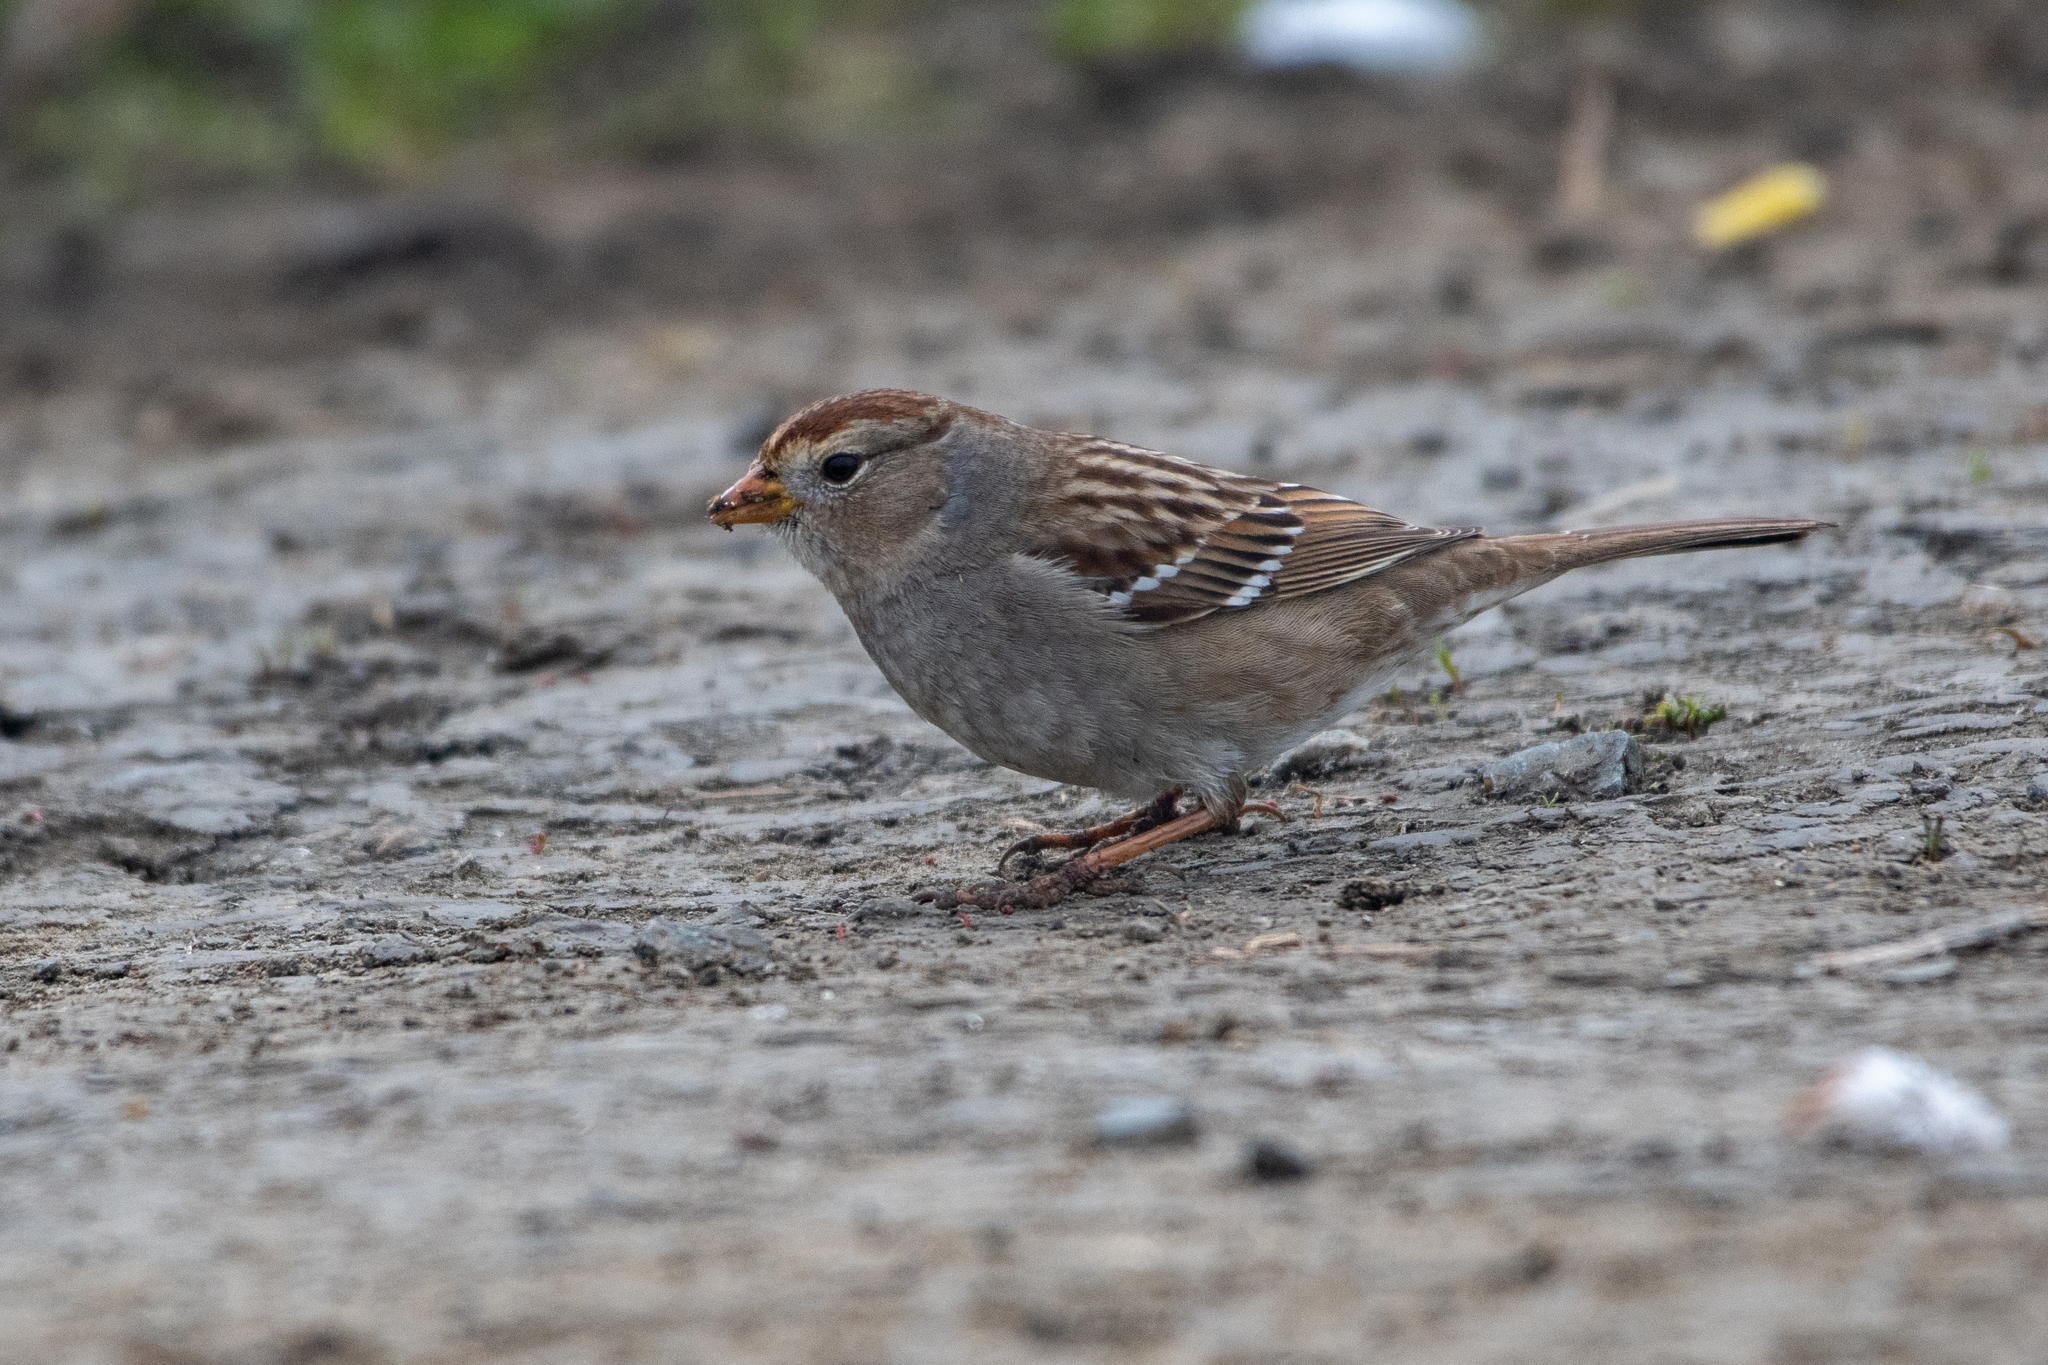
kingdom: Animalia
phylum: Chordata
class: Aves
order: Passeriformes
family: Passerellidae
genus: Zonotrichia
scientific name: Zonotrichia leucophrys
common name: White-crowned sparrow
